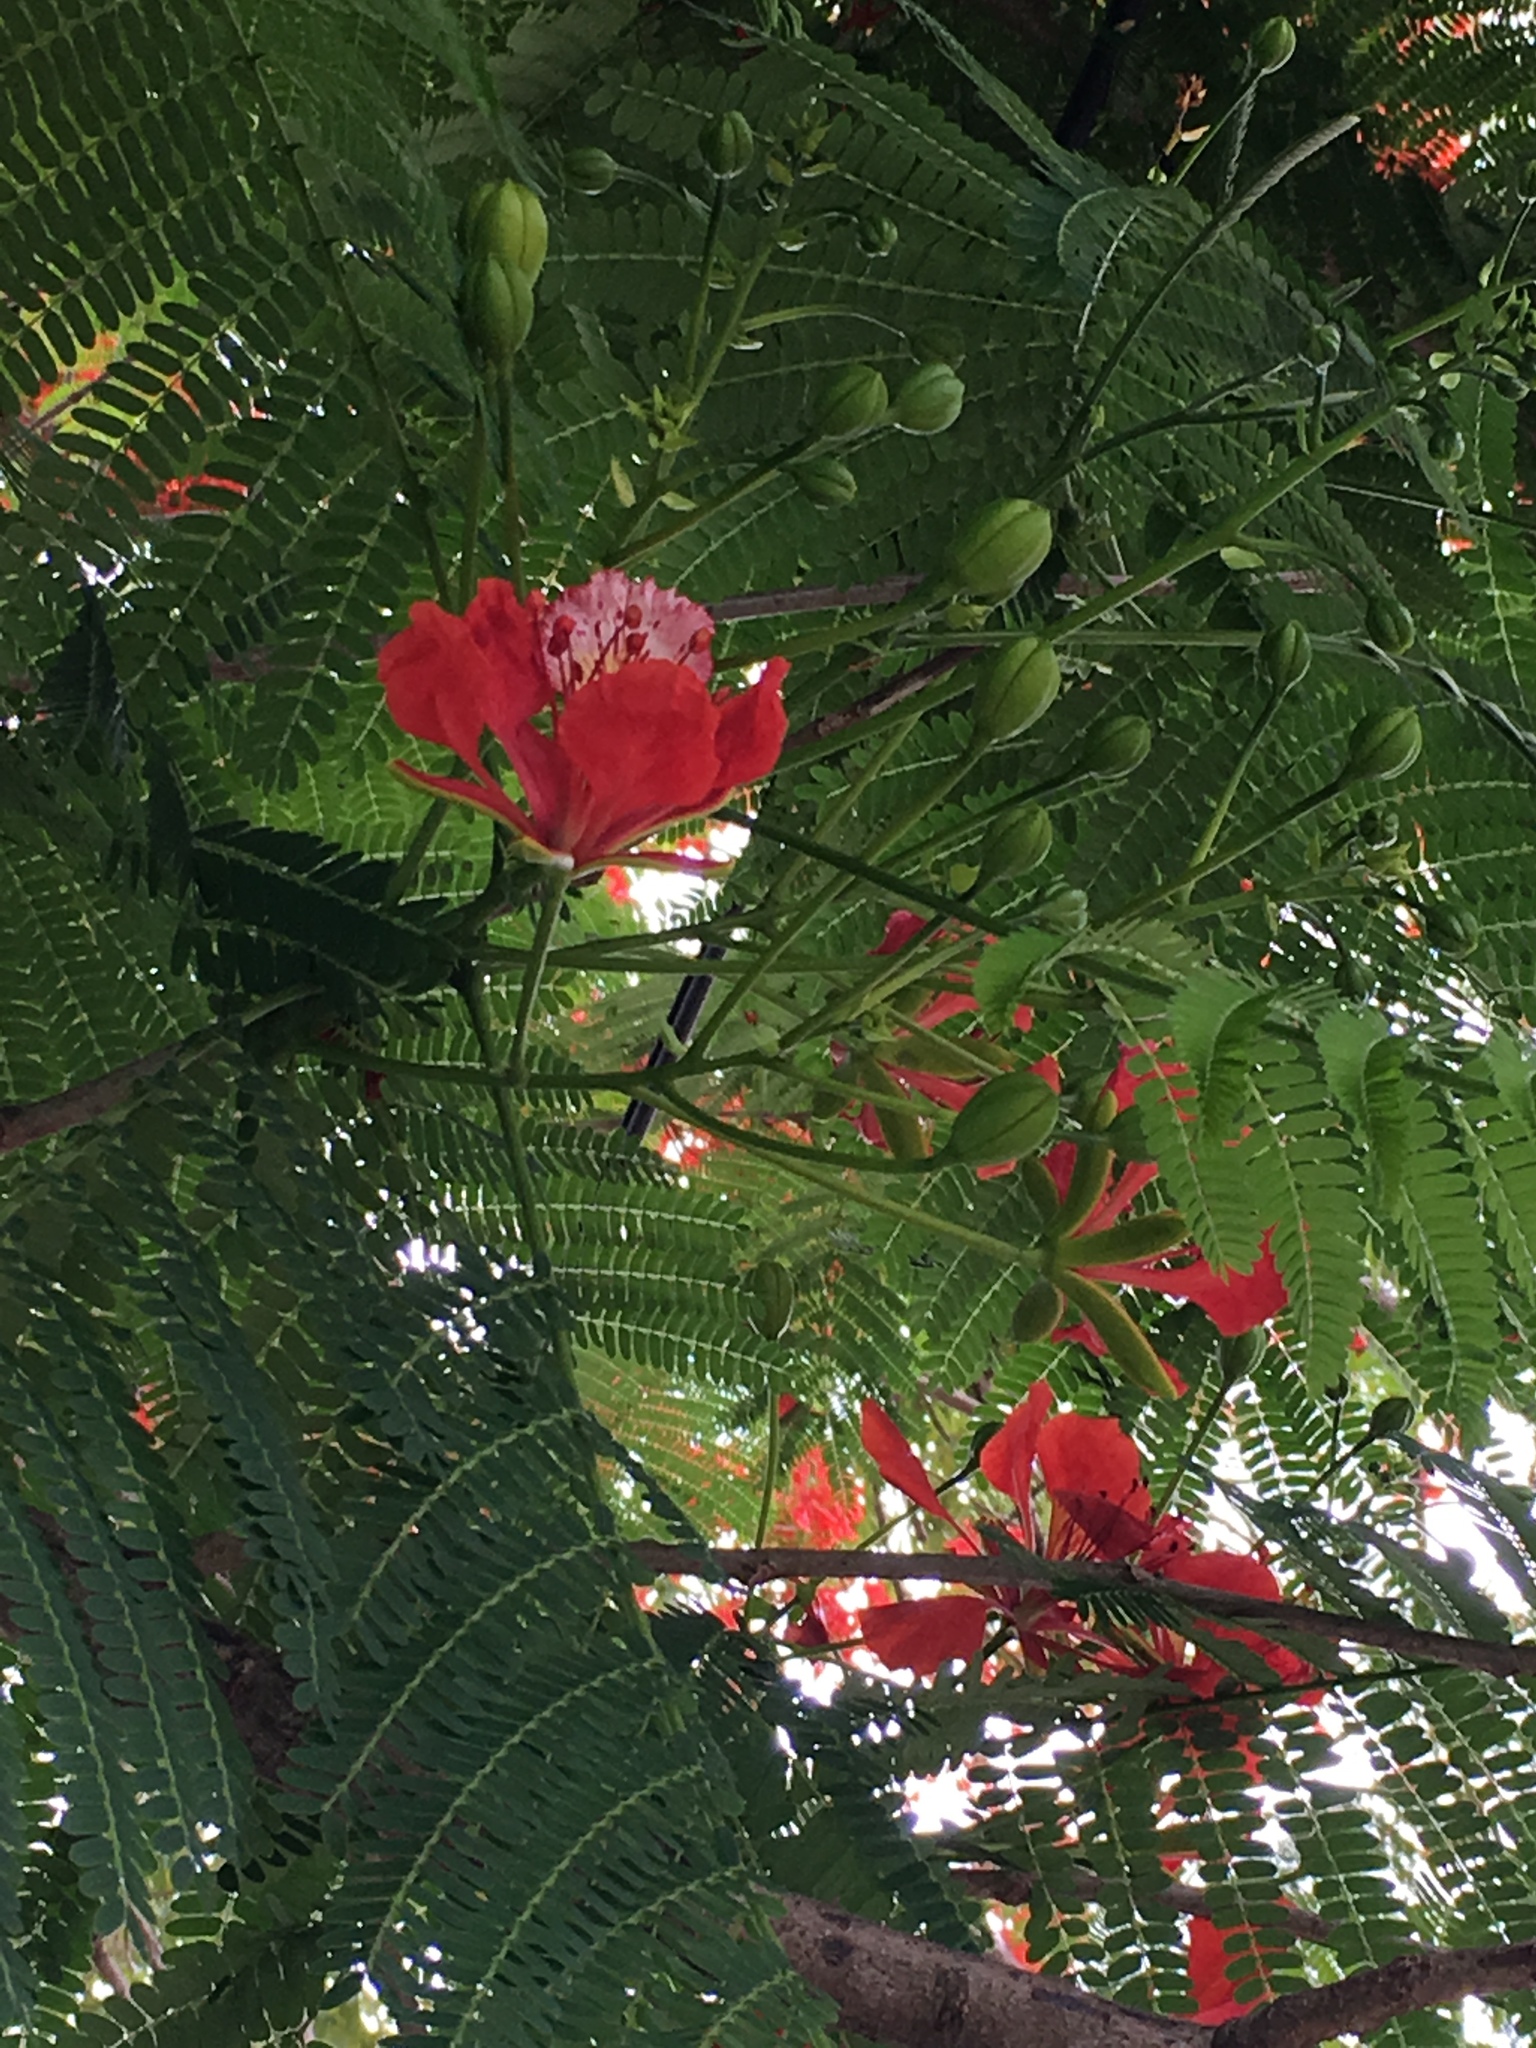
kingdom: Plantae
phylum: Tracheophyta
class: Magnoliopsida
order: Fabales
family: Fabaceae
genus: Delonix
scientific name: Delonix regia
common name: Royal poinciana
